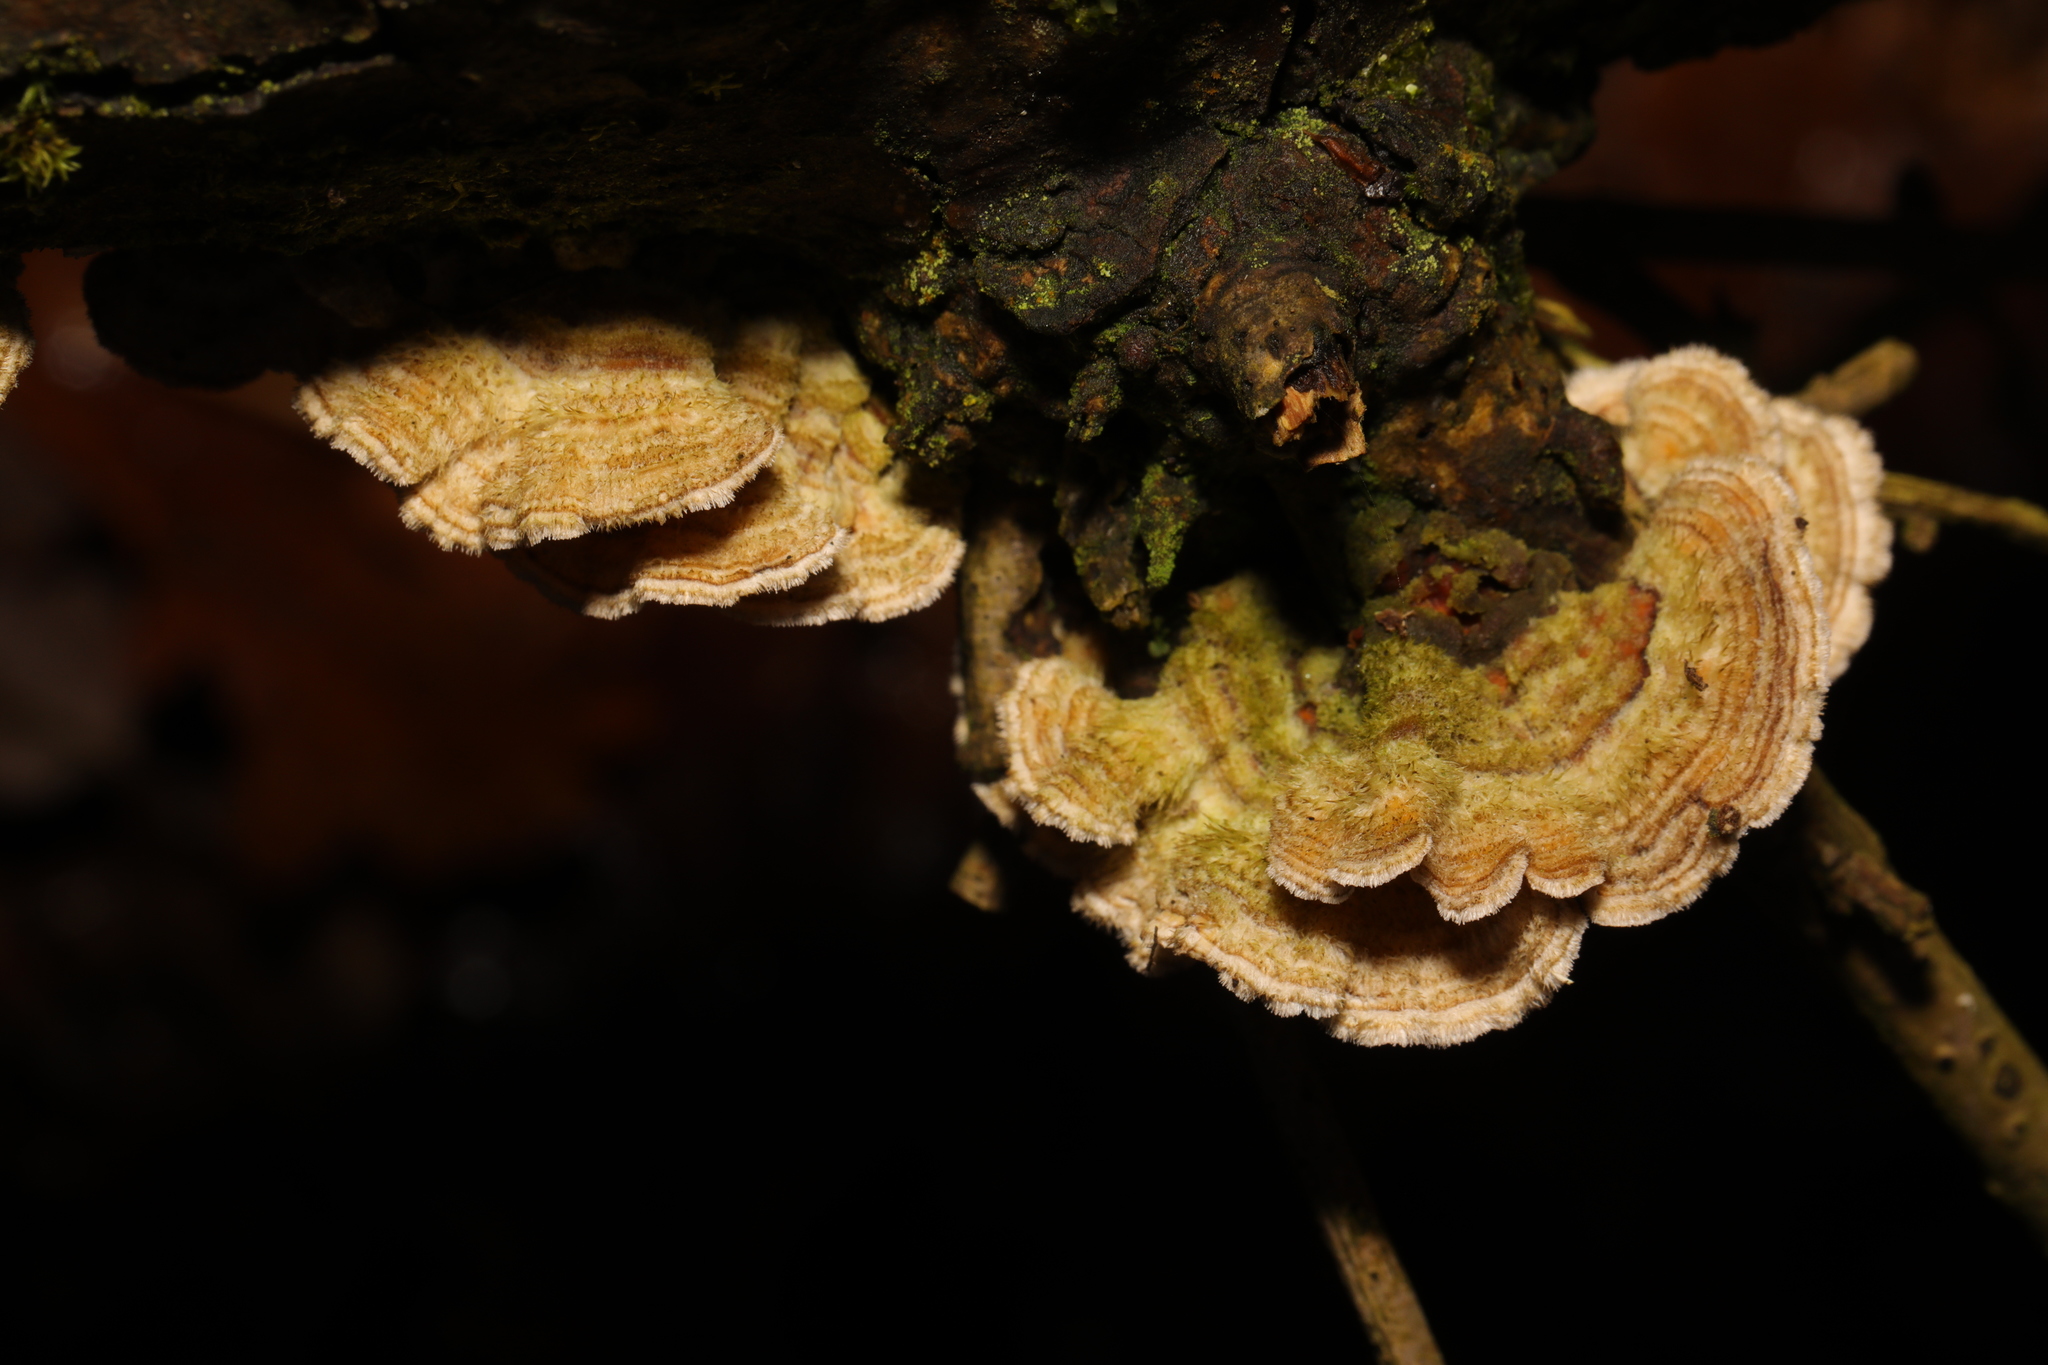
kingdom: Fungi
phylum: Basidiomycota
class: Agaricomycetes
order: Russulales
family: Stereaceae
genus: Stereum
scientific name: Stereum hirsutum
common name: Hairy curtain crust
